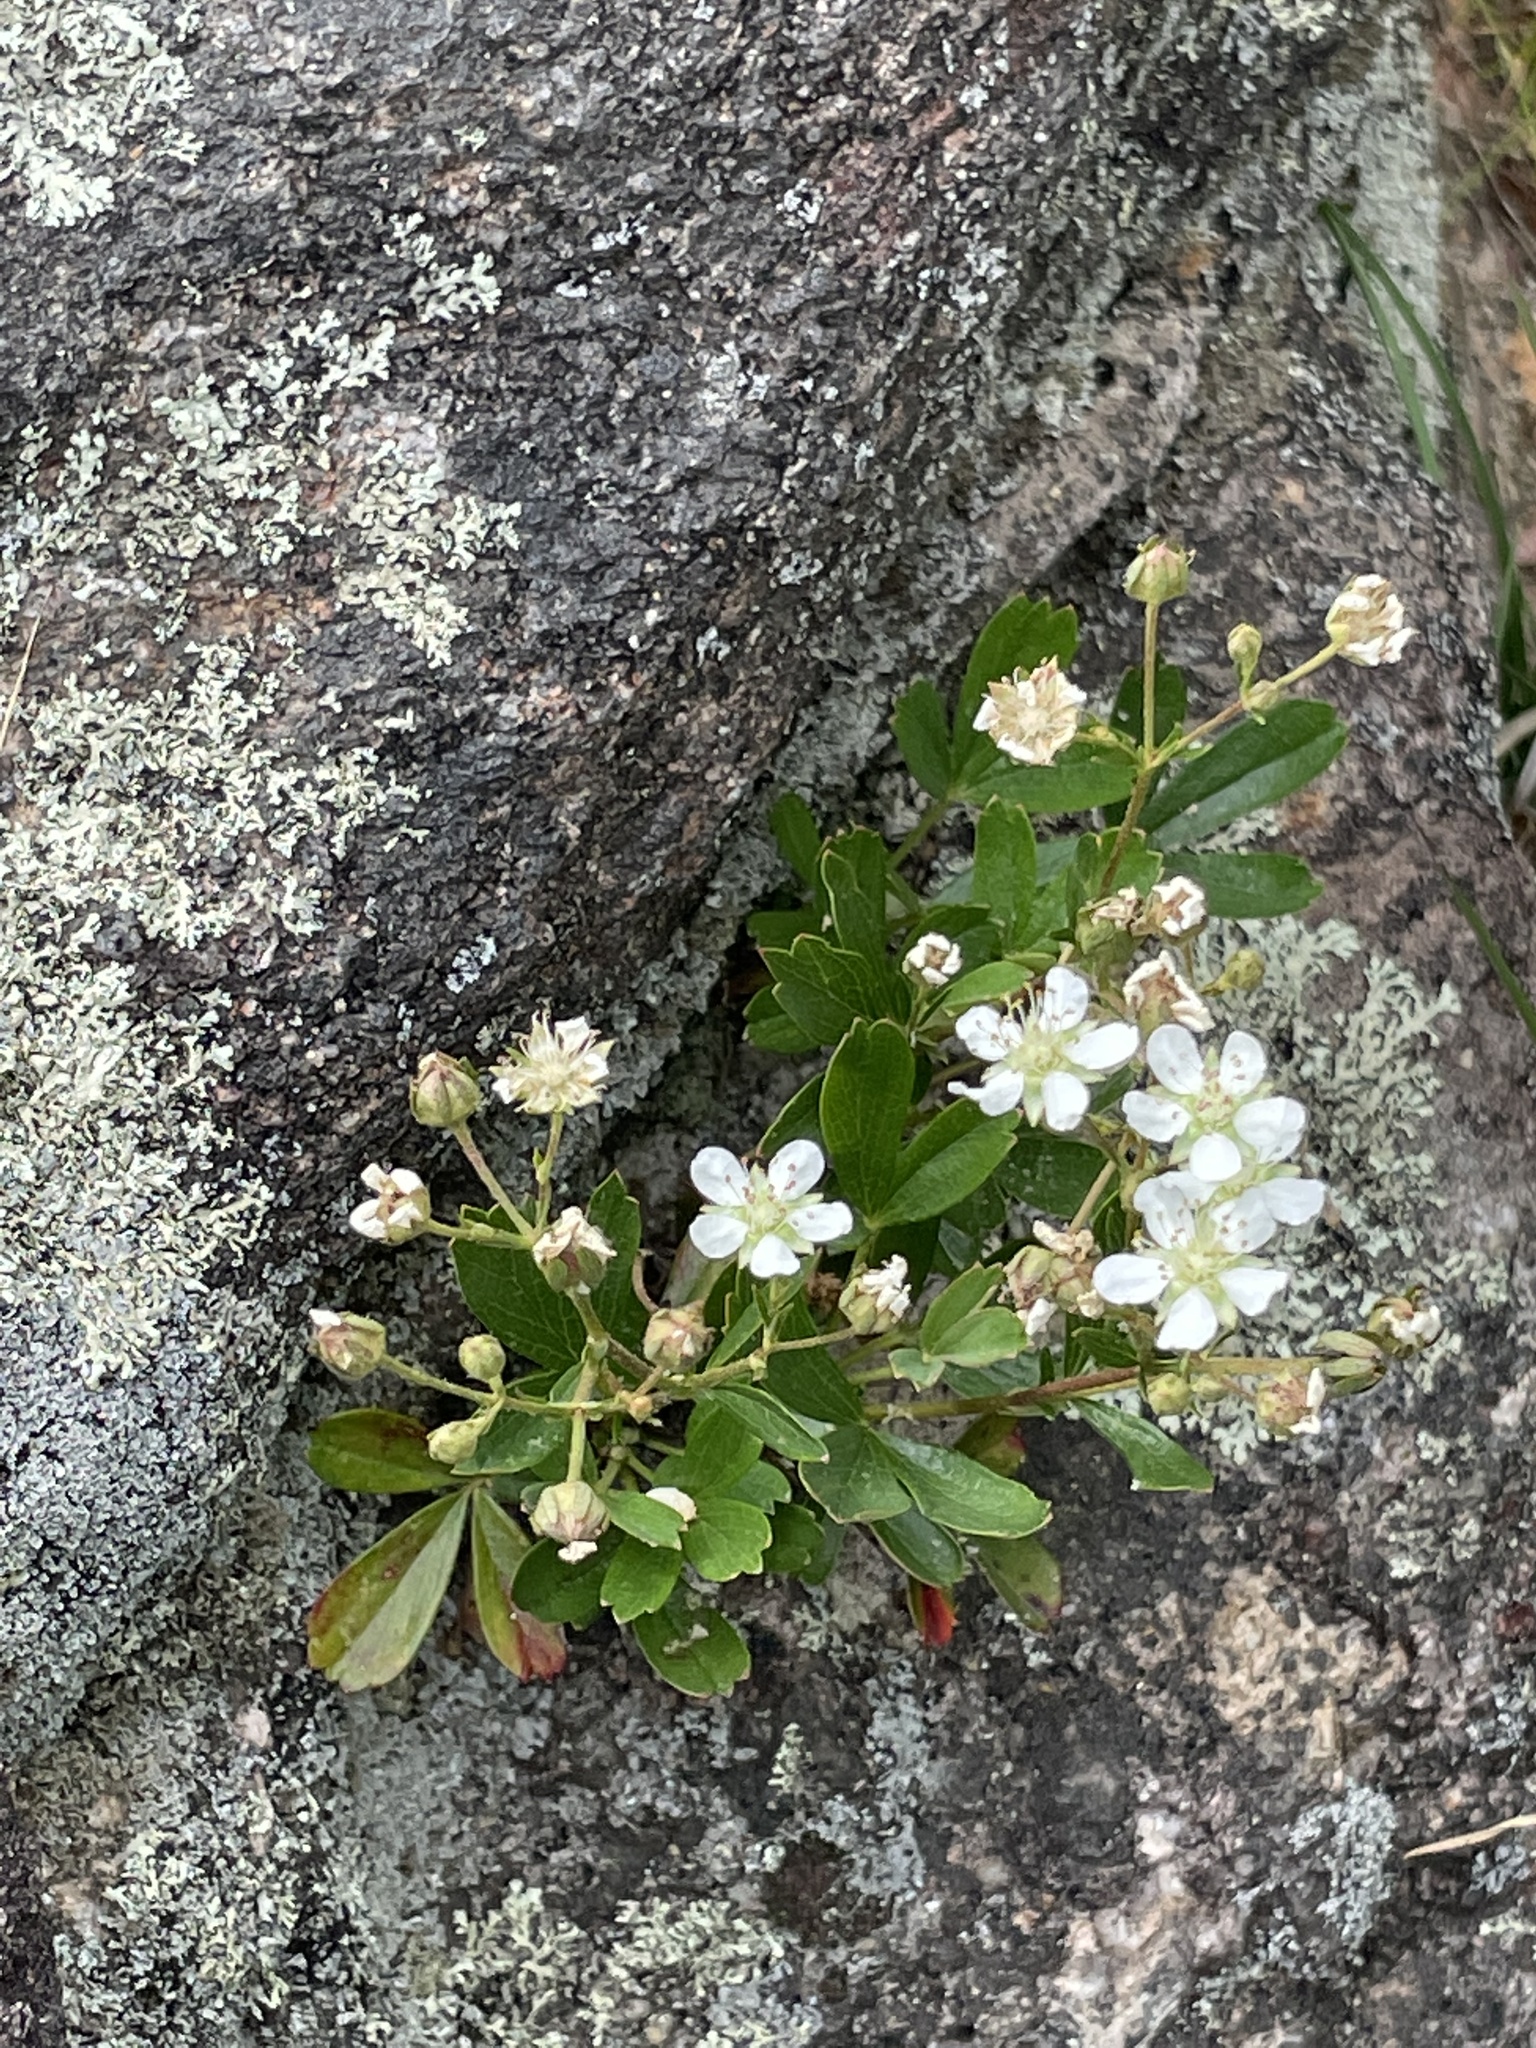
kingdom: Plantae
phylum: Tracheophyta
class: Magnoliopsida
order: Rosales
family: Rosaceae
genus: Sibbaldia
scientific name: Sibbaldia tridentata
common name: Three-toothed cinquefoil
